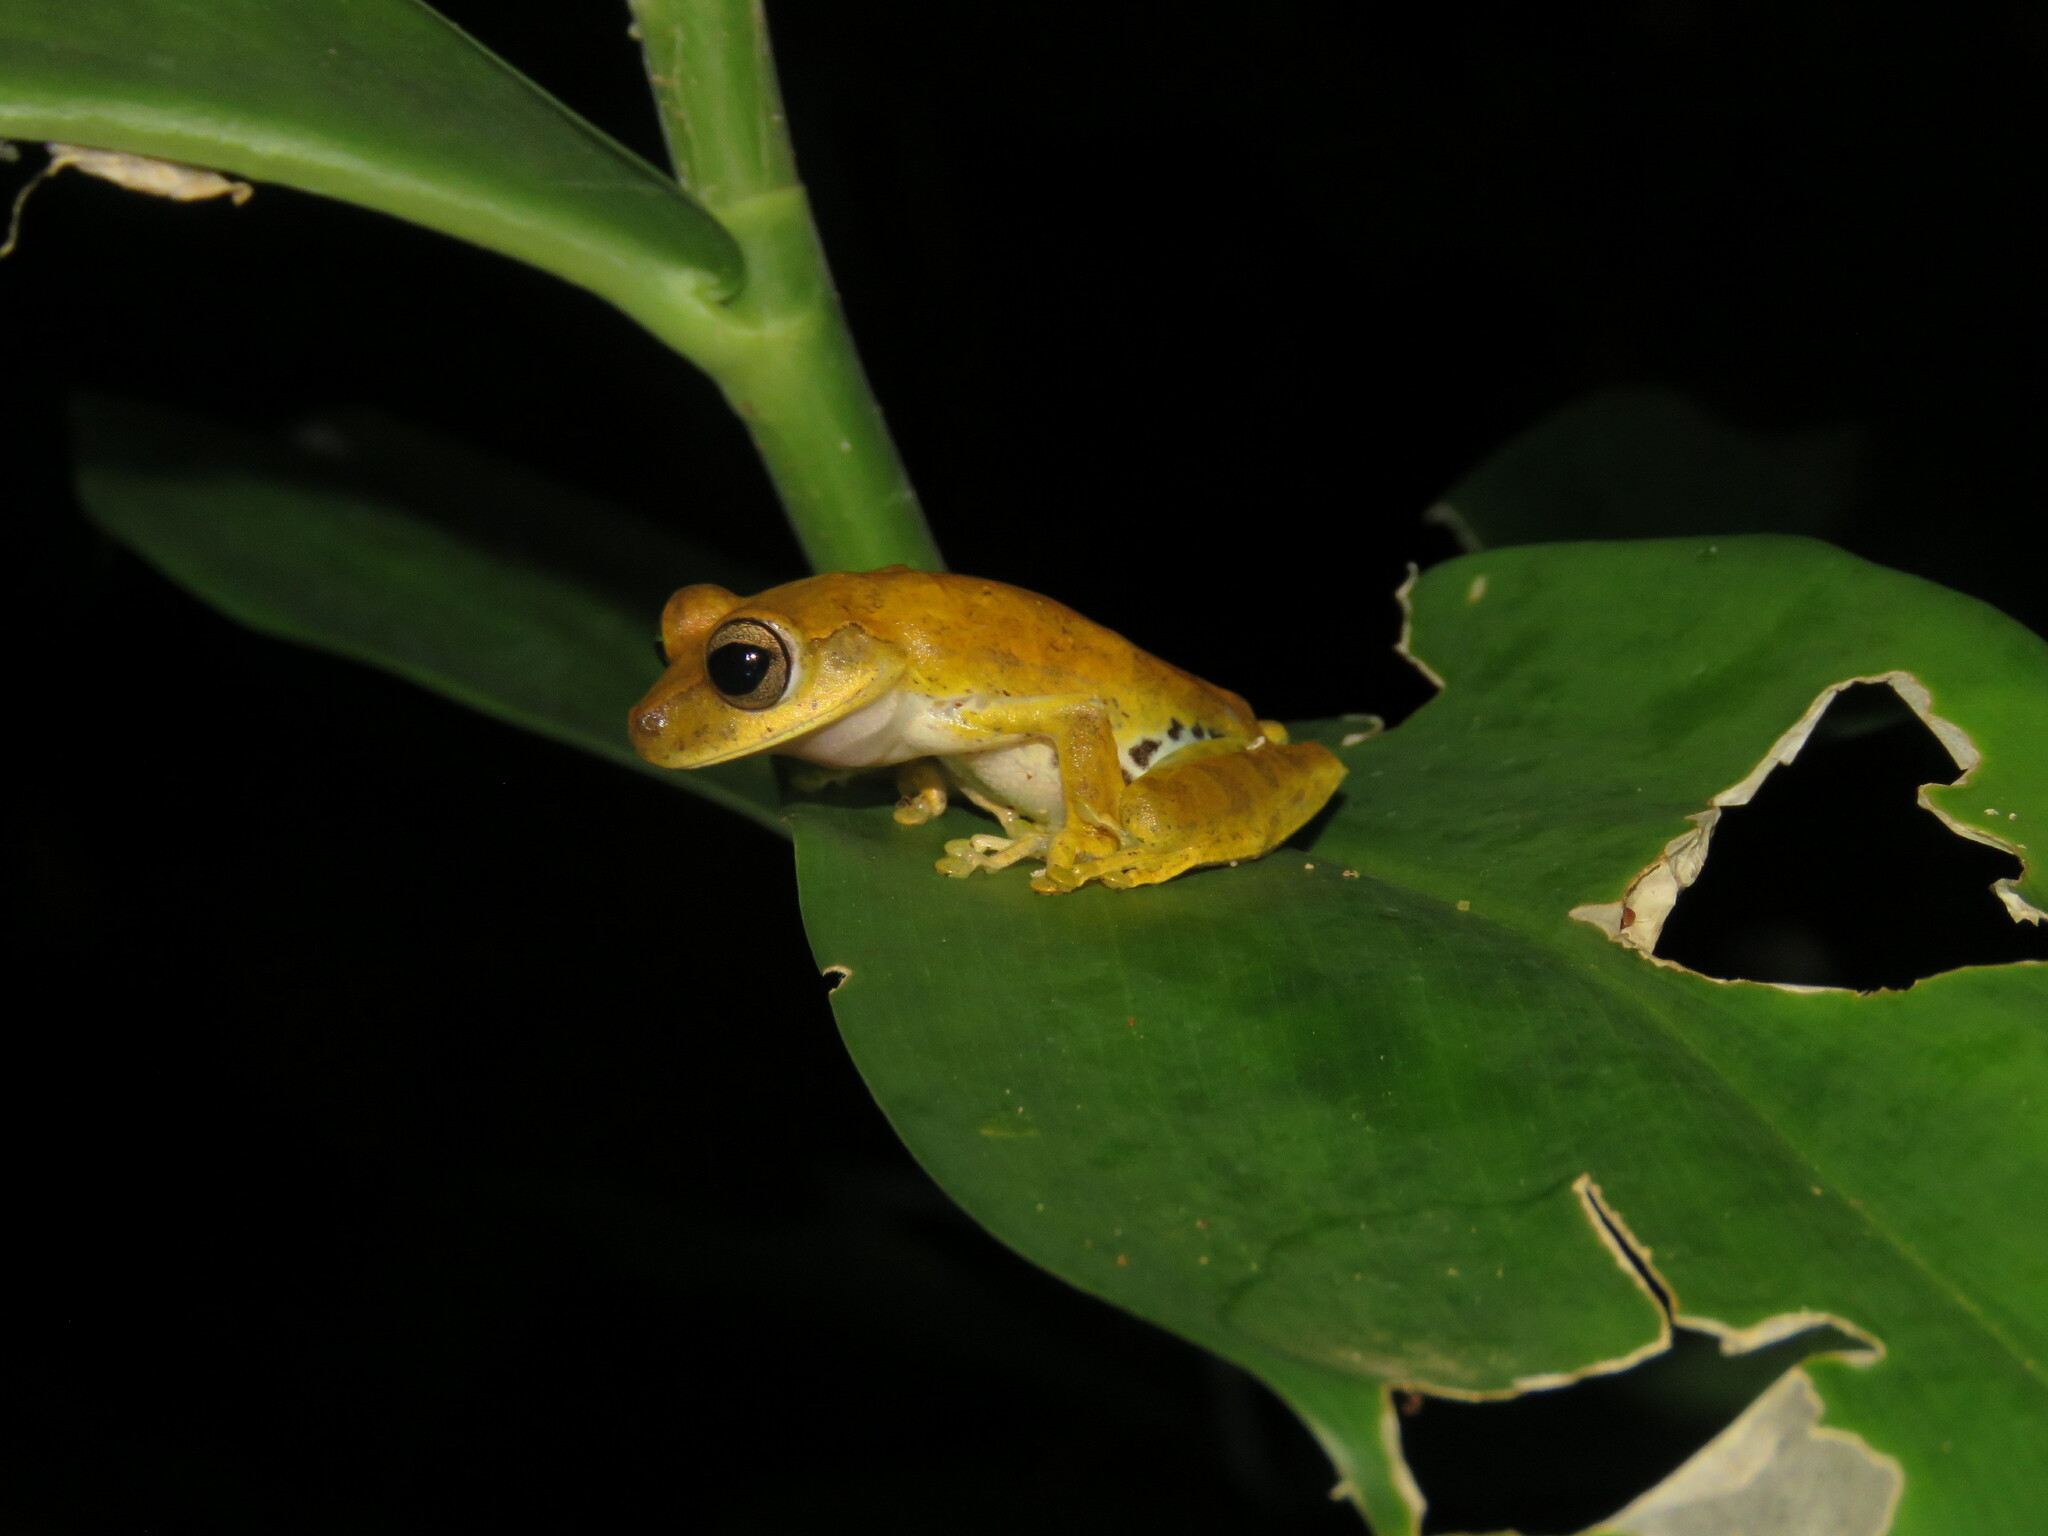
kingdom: Animalia
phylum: Chordata
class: Amphibia
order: Anura
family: Hylidae
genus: Boana
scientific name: Boana steinbachi
